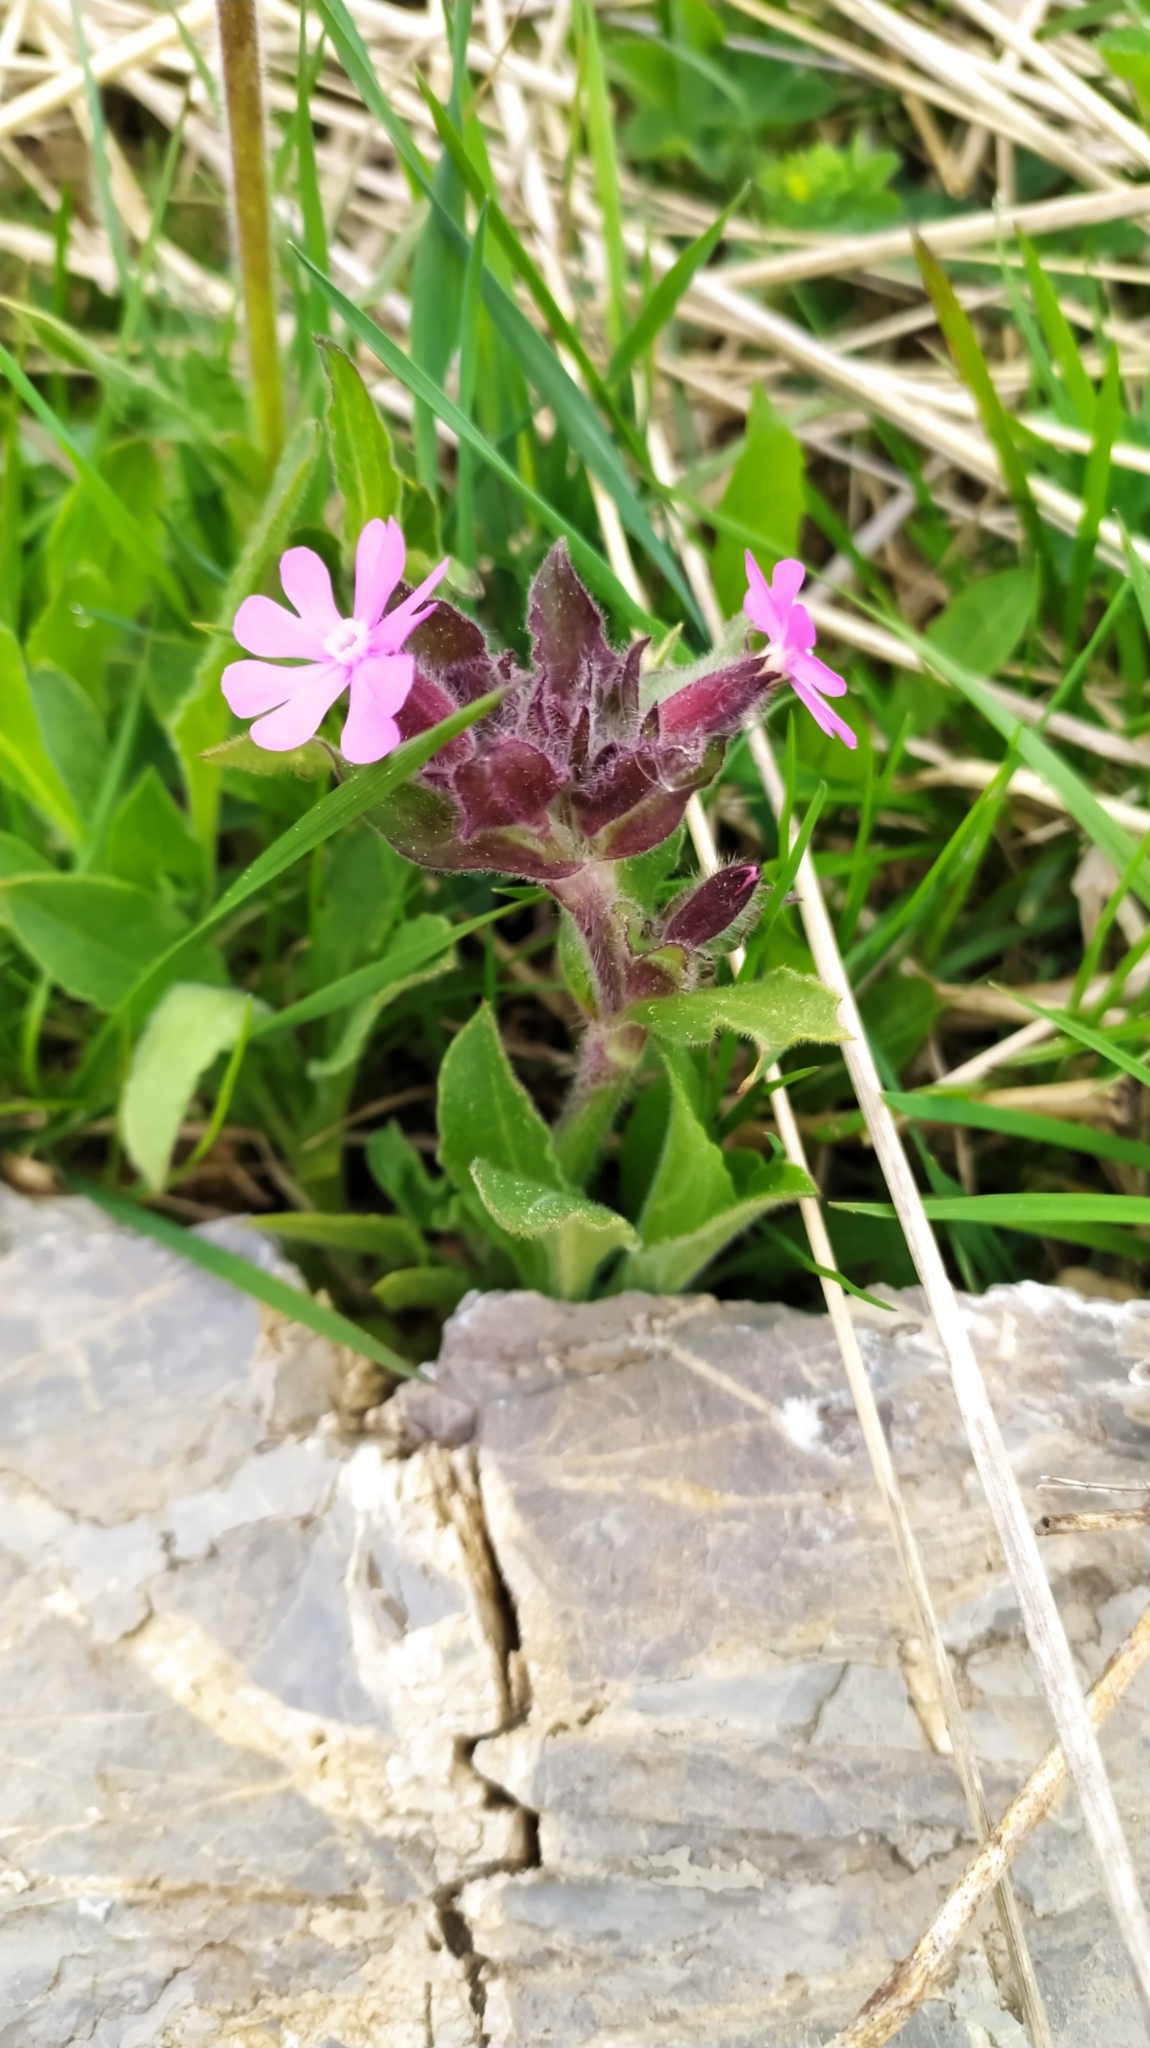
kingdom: Plantae
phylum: Tracheophyta
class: Magnoliopsida
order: Caryophyllales
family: Caryophyllaceae
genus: Silene
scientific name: Silene dioica
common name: Red campion
